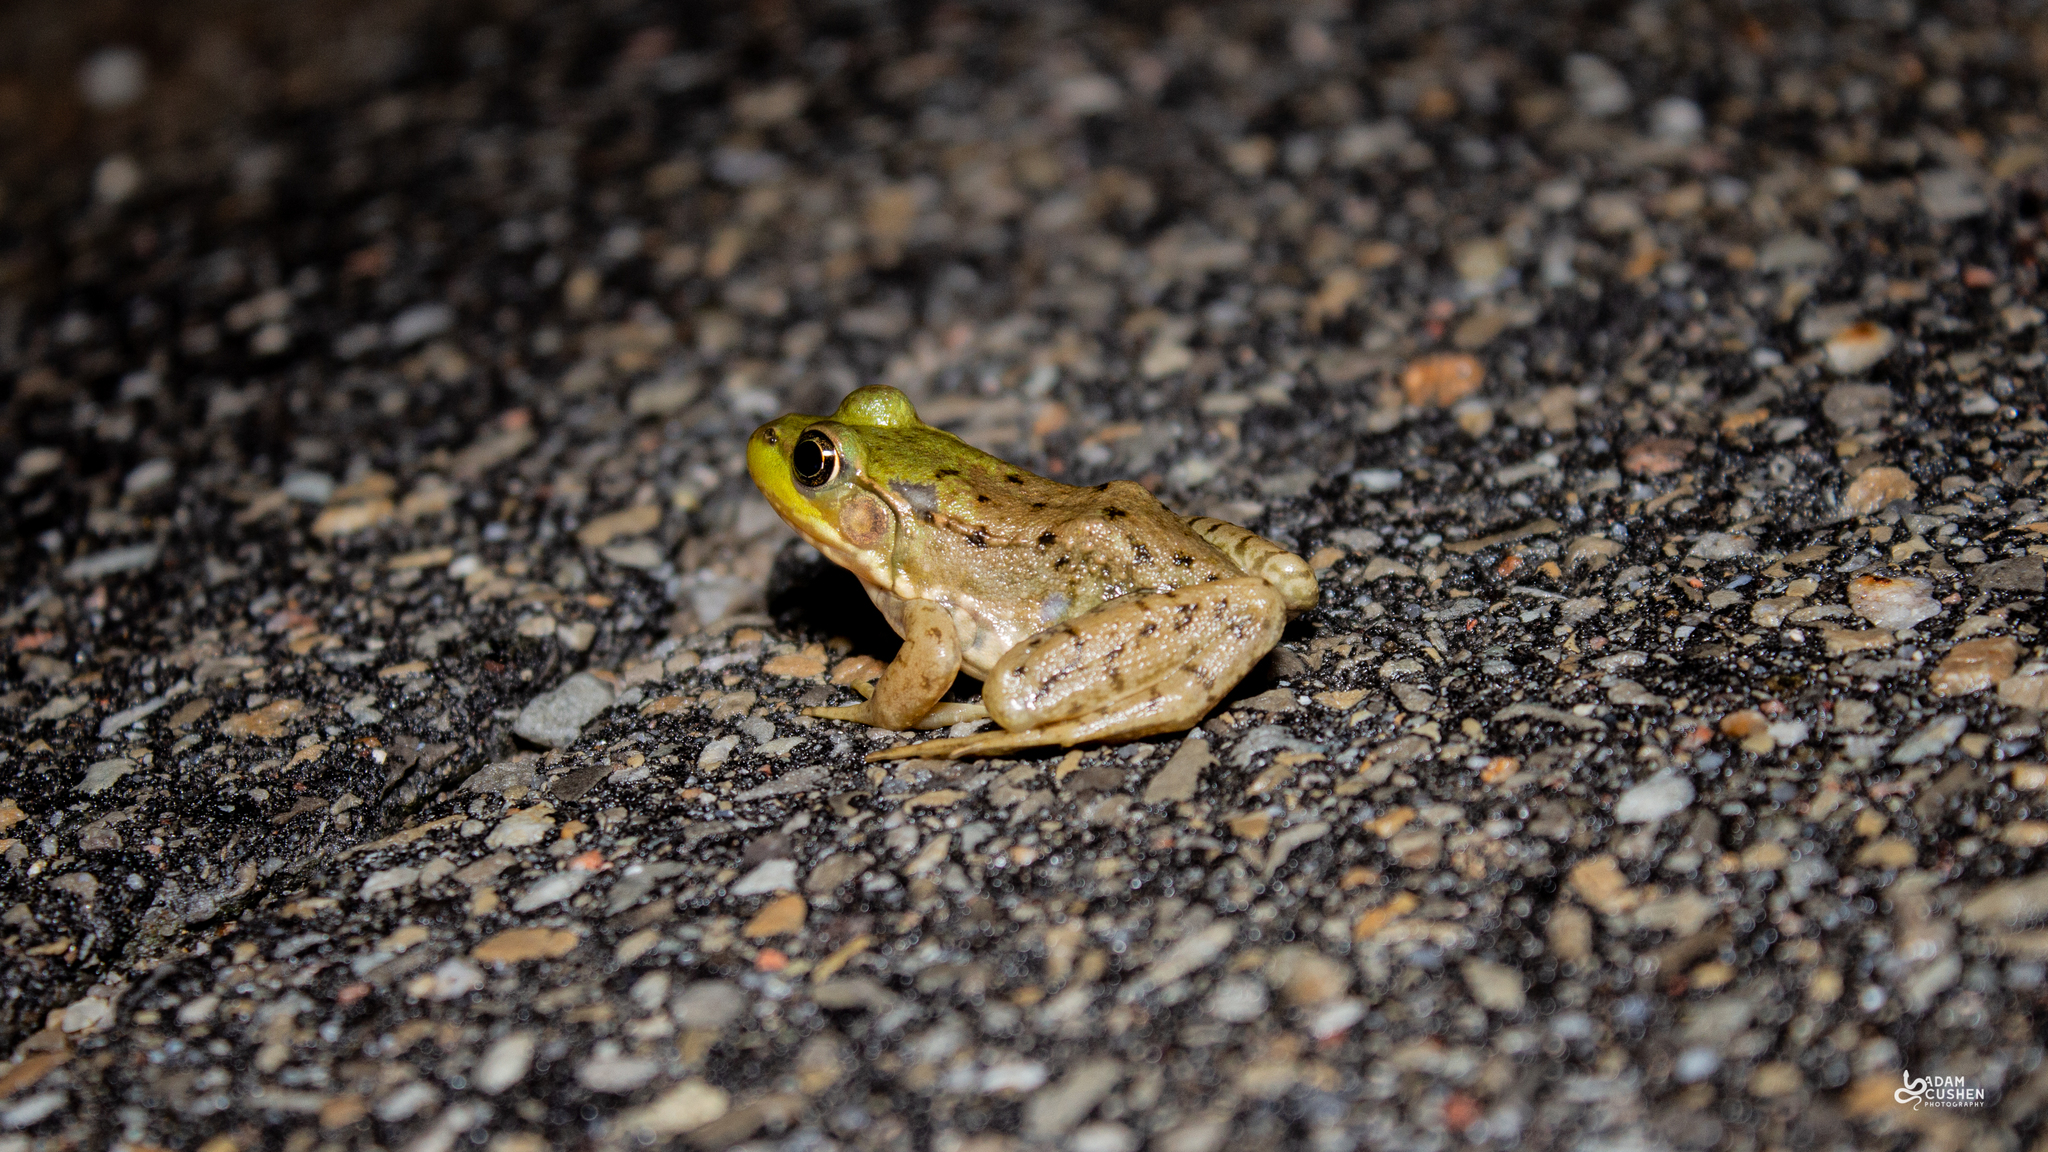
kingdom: Animalia
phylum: Chordata
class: Amphibia
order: Anura
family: Ranidae
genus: Lithobates
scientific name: Lithobates clamitans
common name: Green frog
